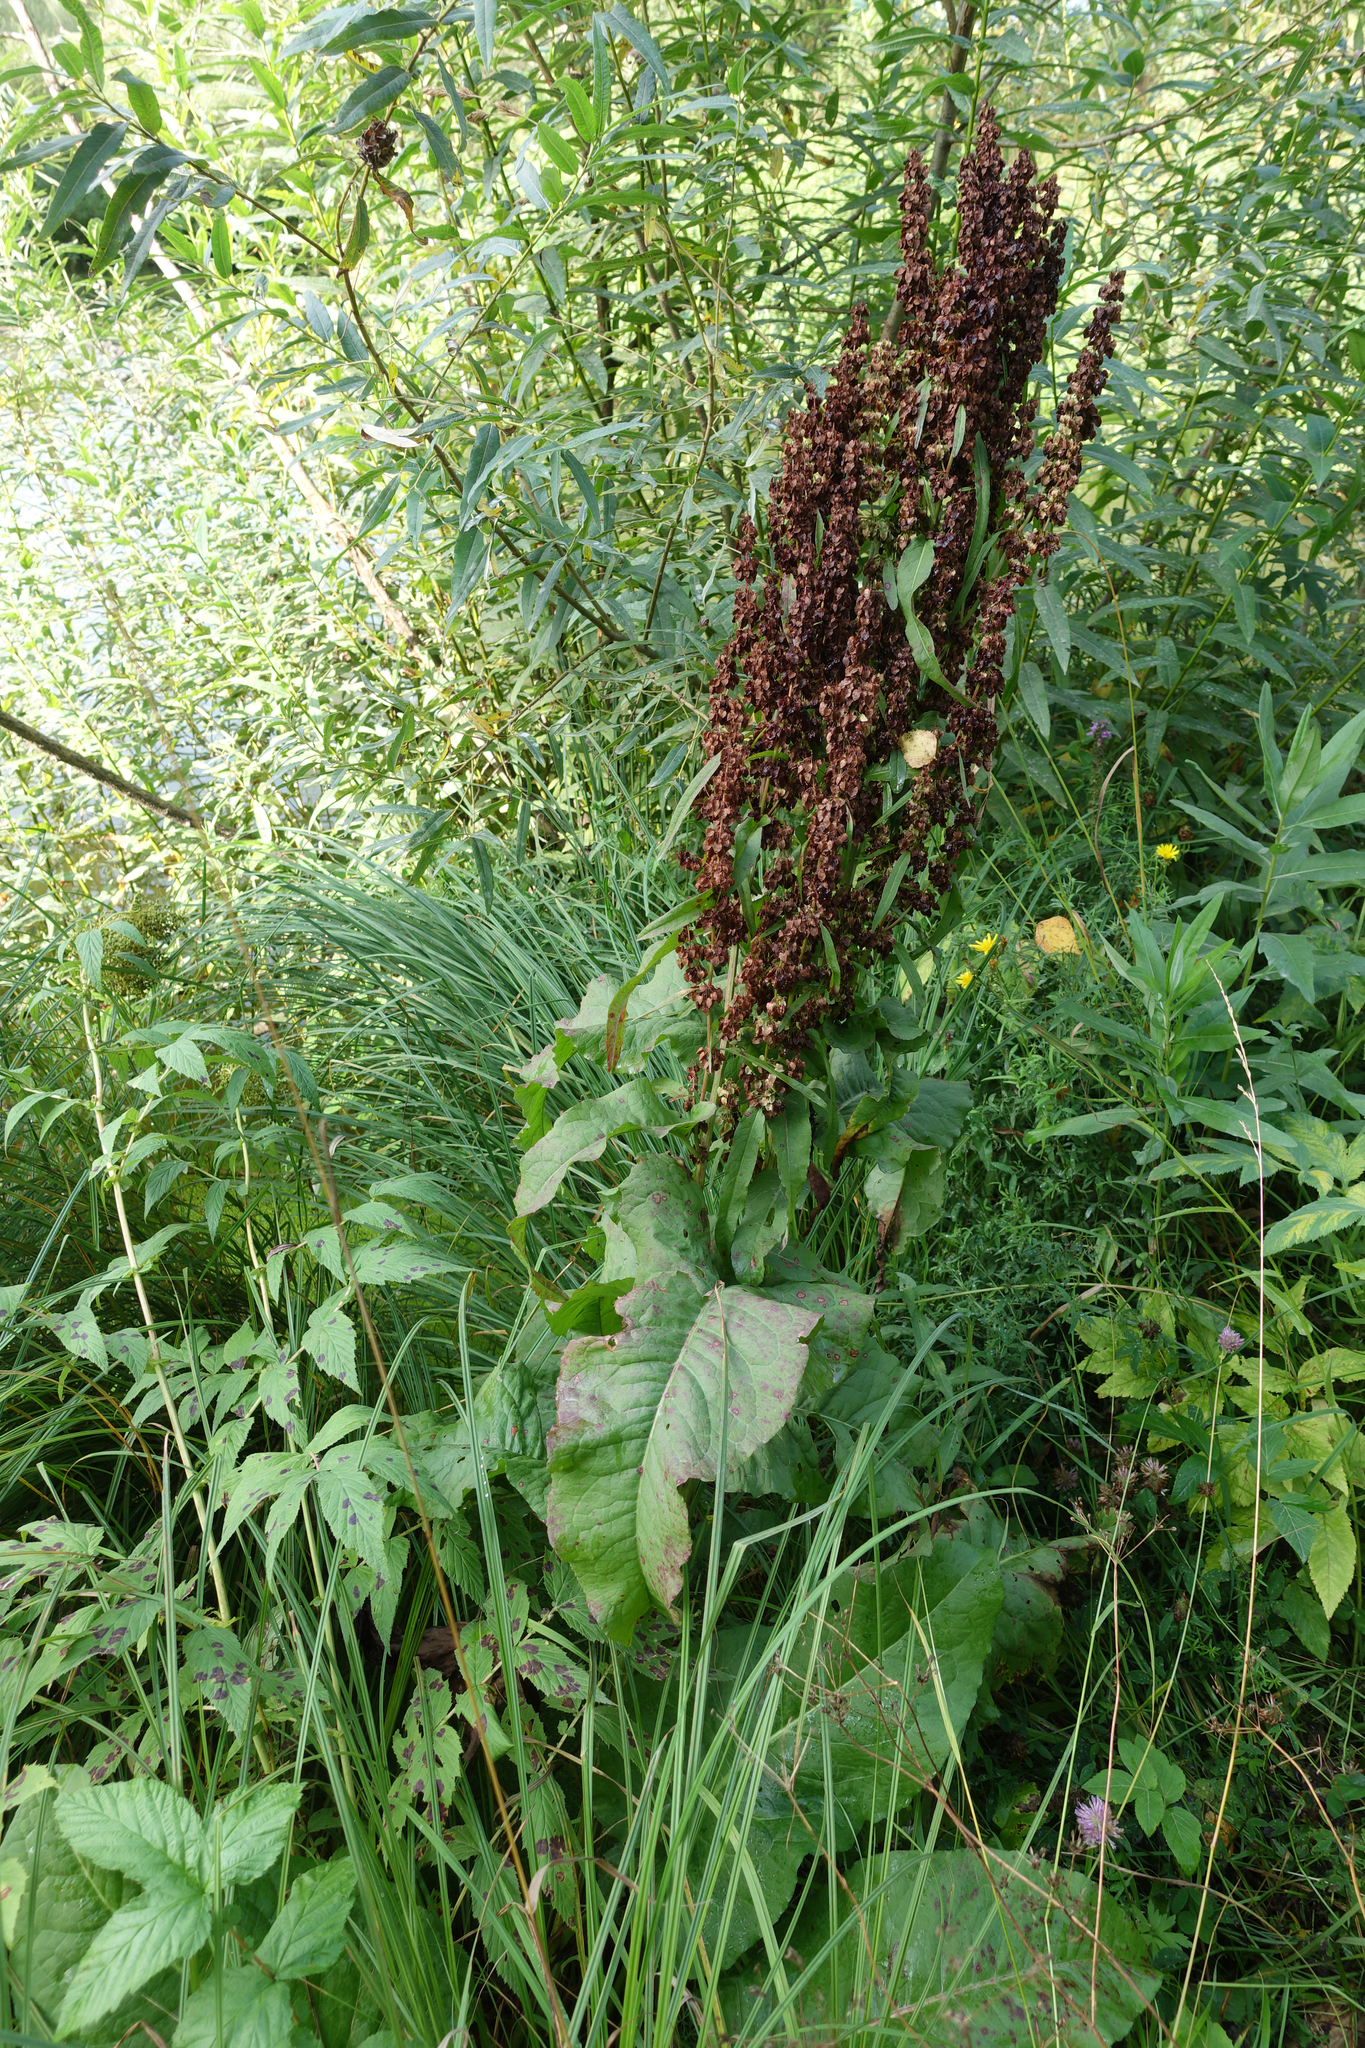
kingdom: Plantae
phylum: Tracheophyta
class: Magnoliopsida
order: Caryophyllales
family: Polygonaceae
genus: Rumex
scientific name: Rumex aquaticus
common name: Scottish dock
